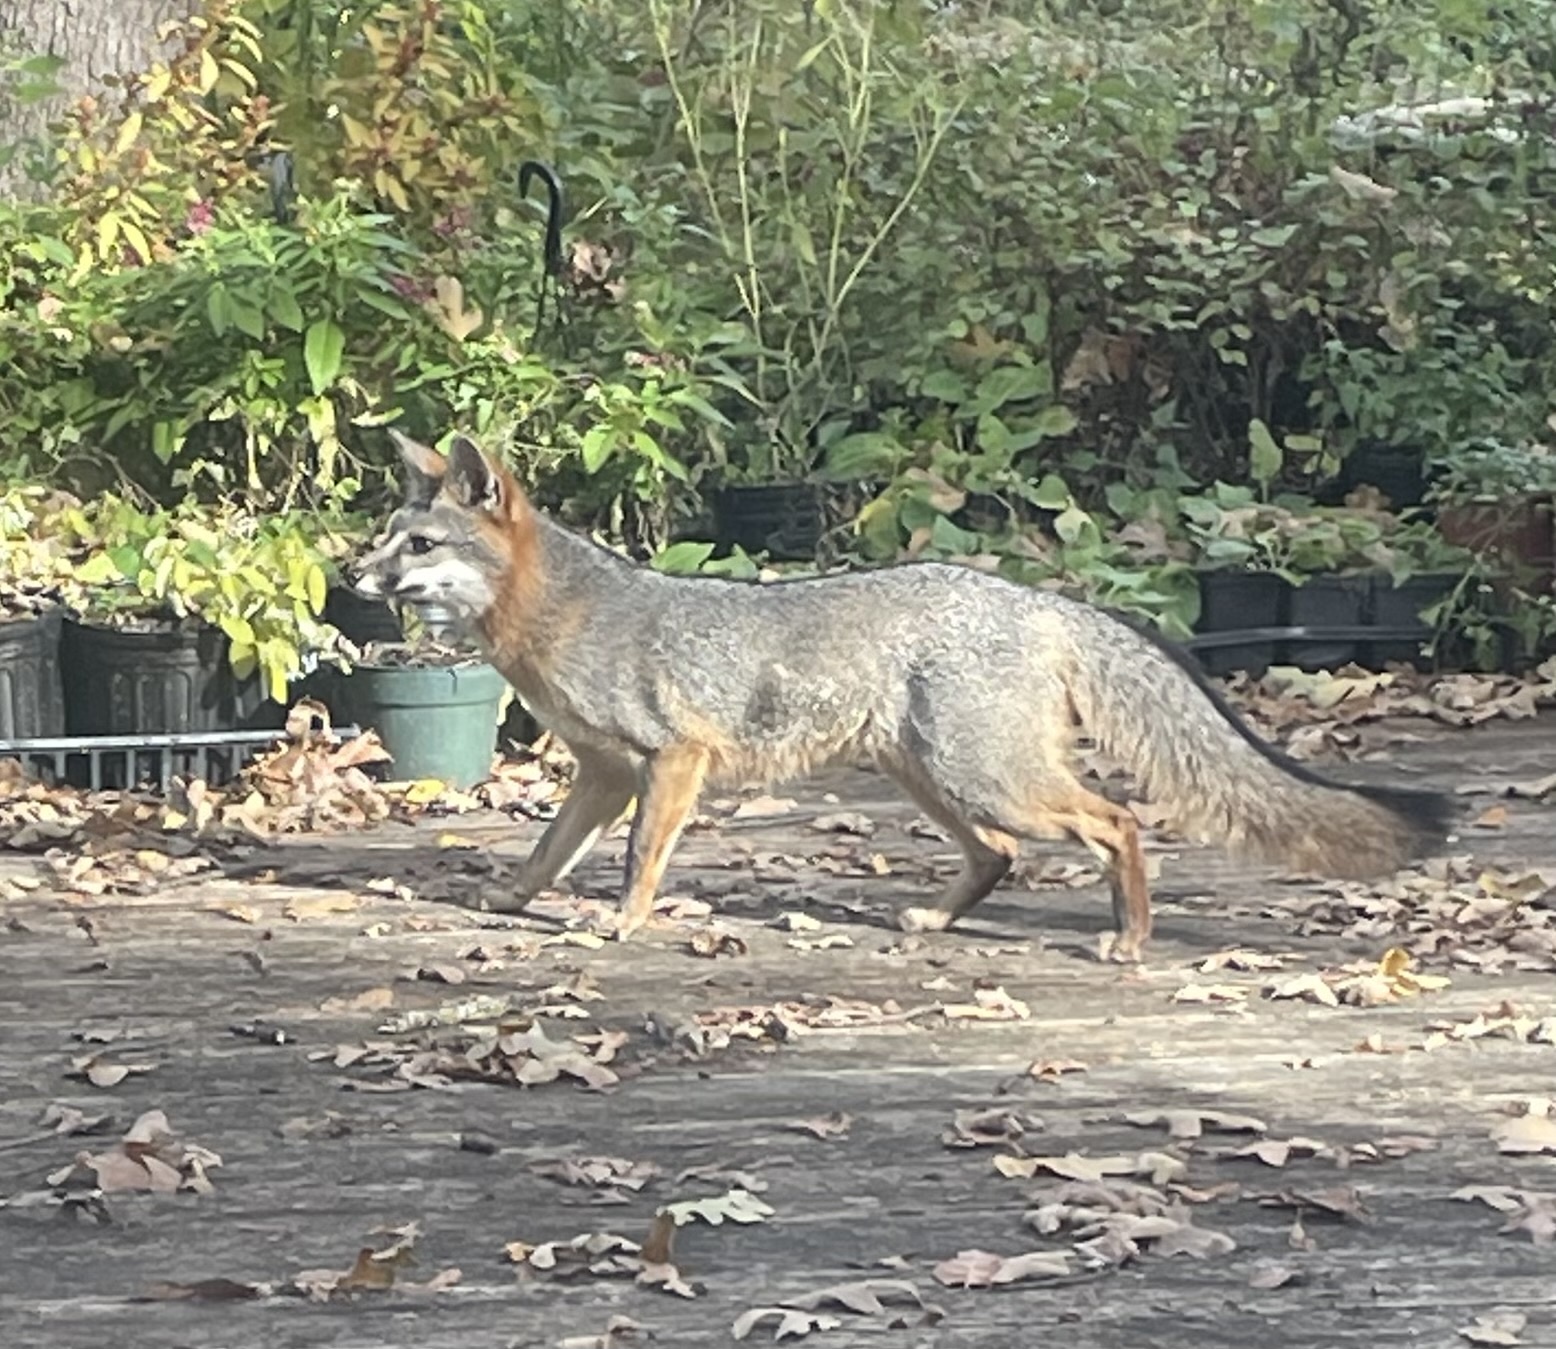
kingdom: Animalia
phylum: Chordata
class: Mammalia
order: Carnivora
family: Canidae
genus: Urocyon
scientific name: Urocyon cinereoargenteus
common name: Gray fox
